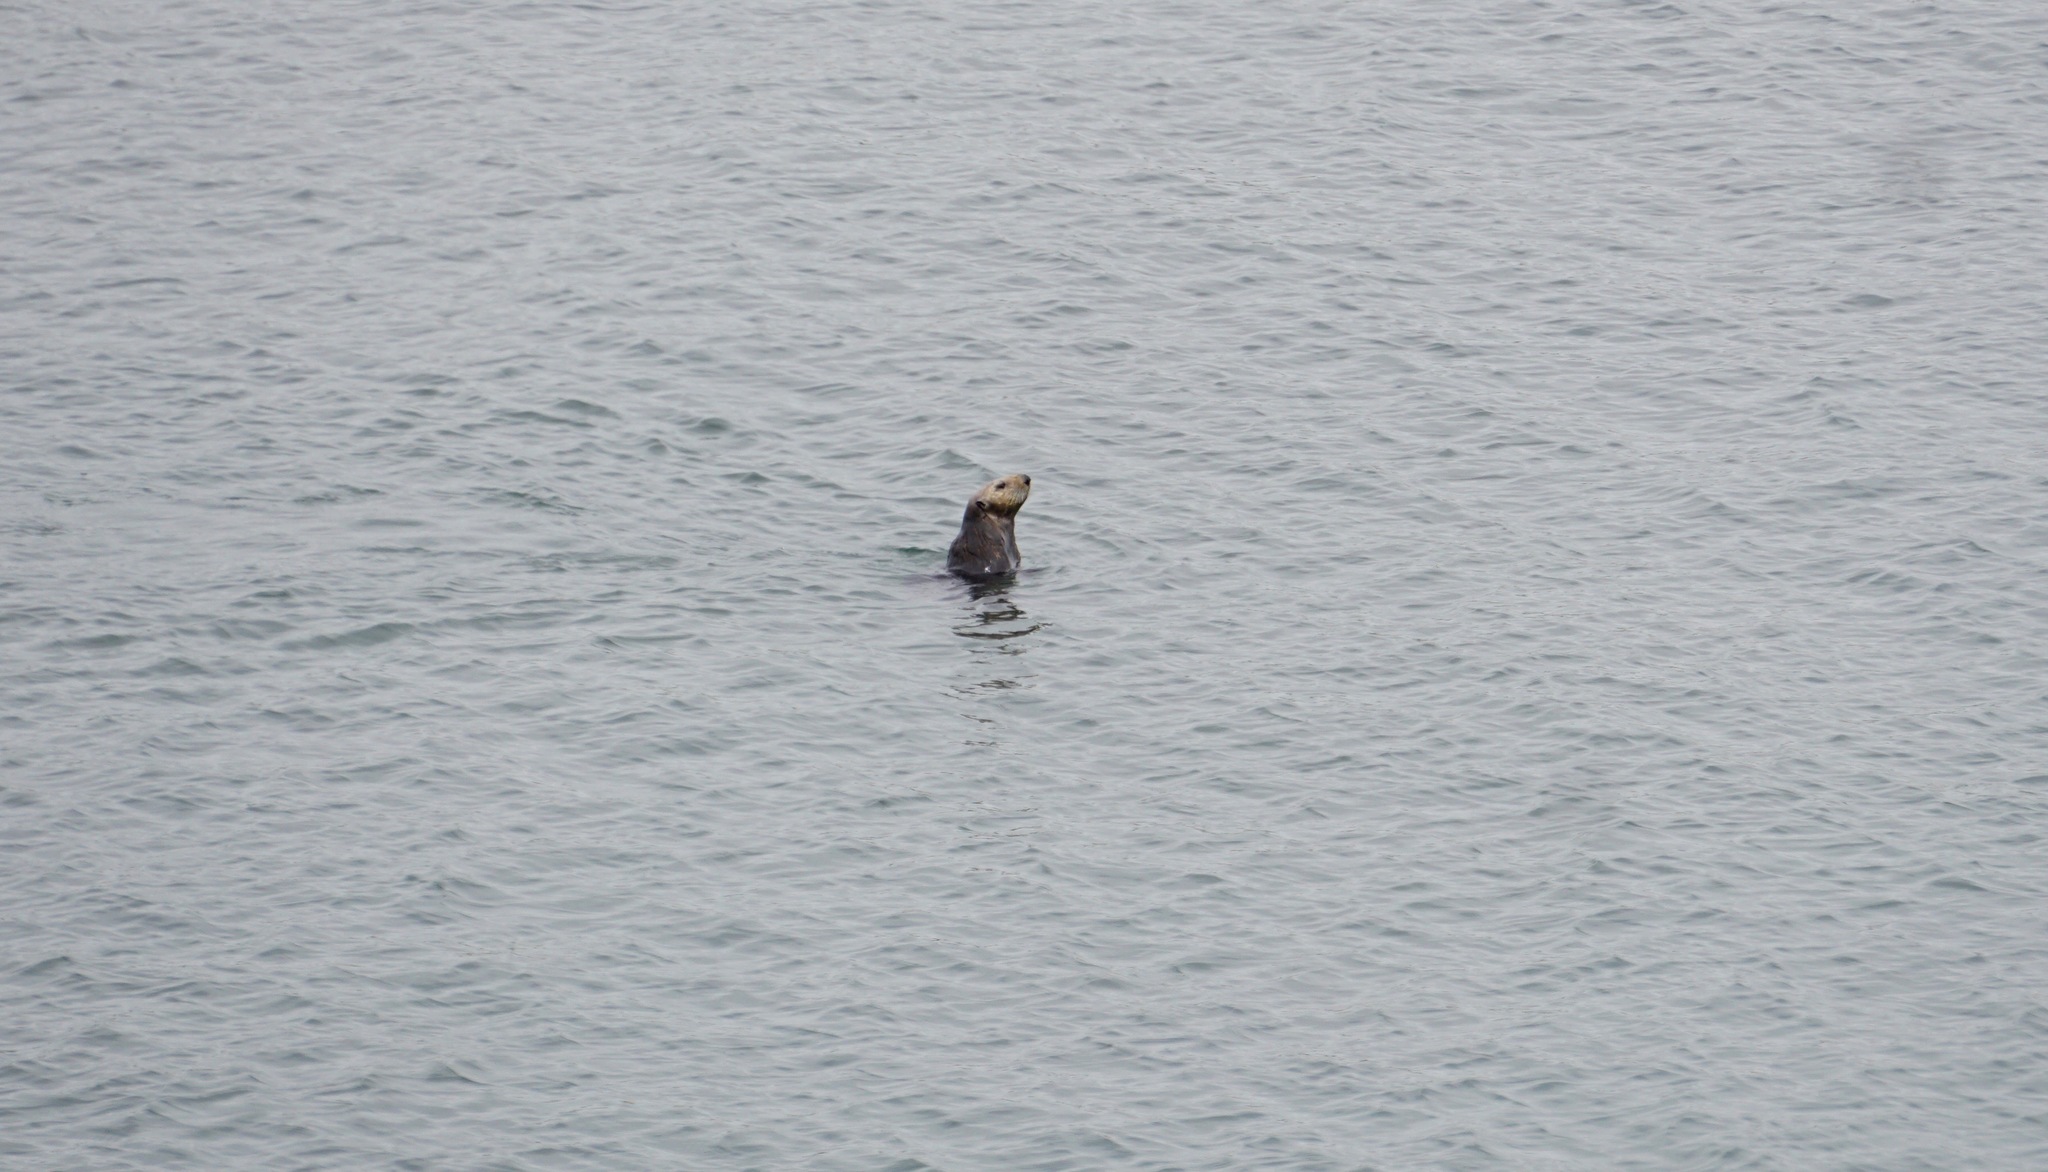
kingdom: Animalia
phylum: Chordata
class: Mammalia
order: Carnivora
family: Mustelidae
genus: Enhydra
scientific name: Enhydra lutris
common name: Sea otter
